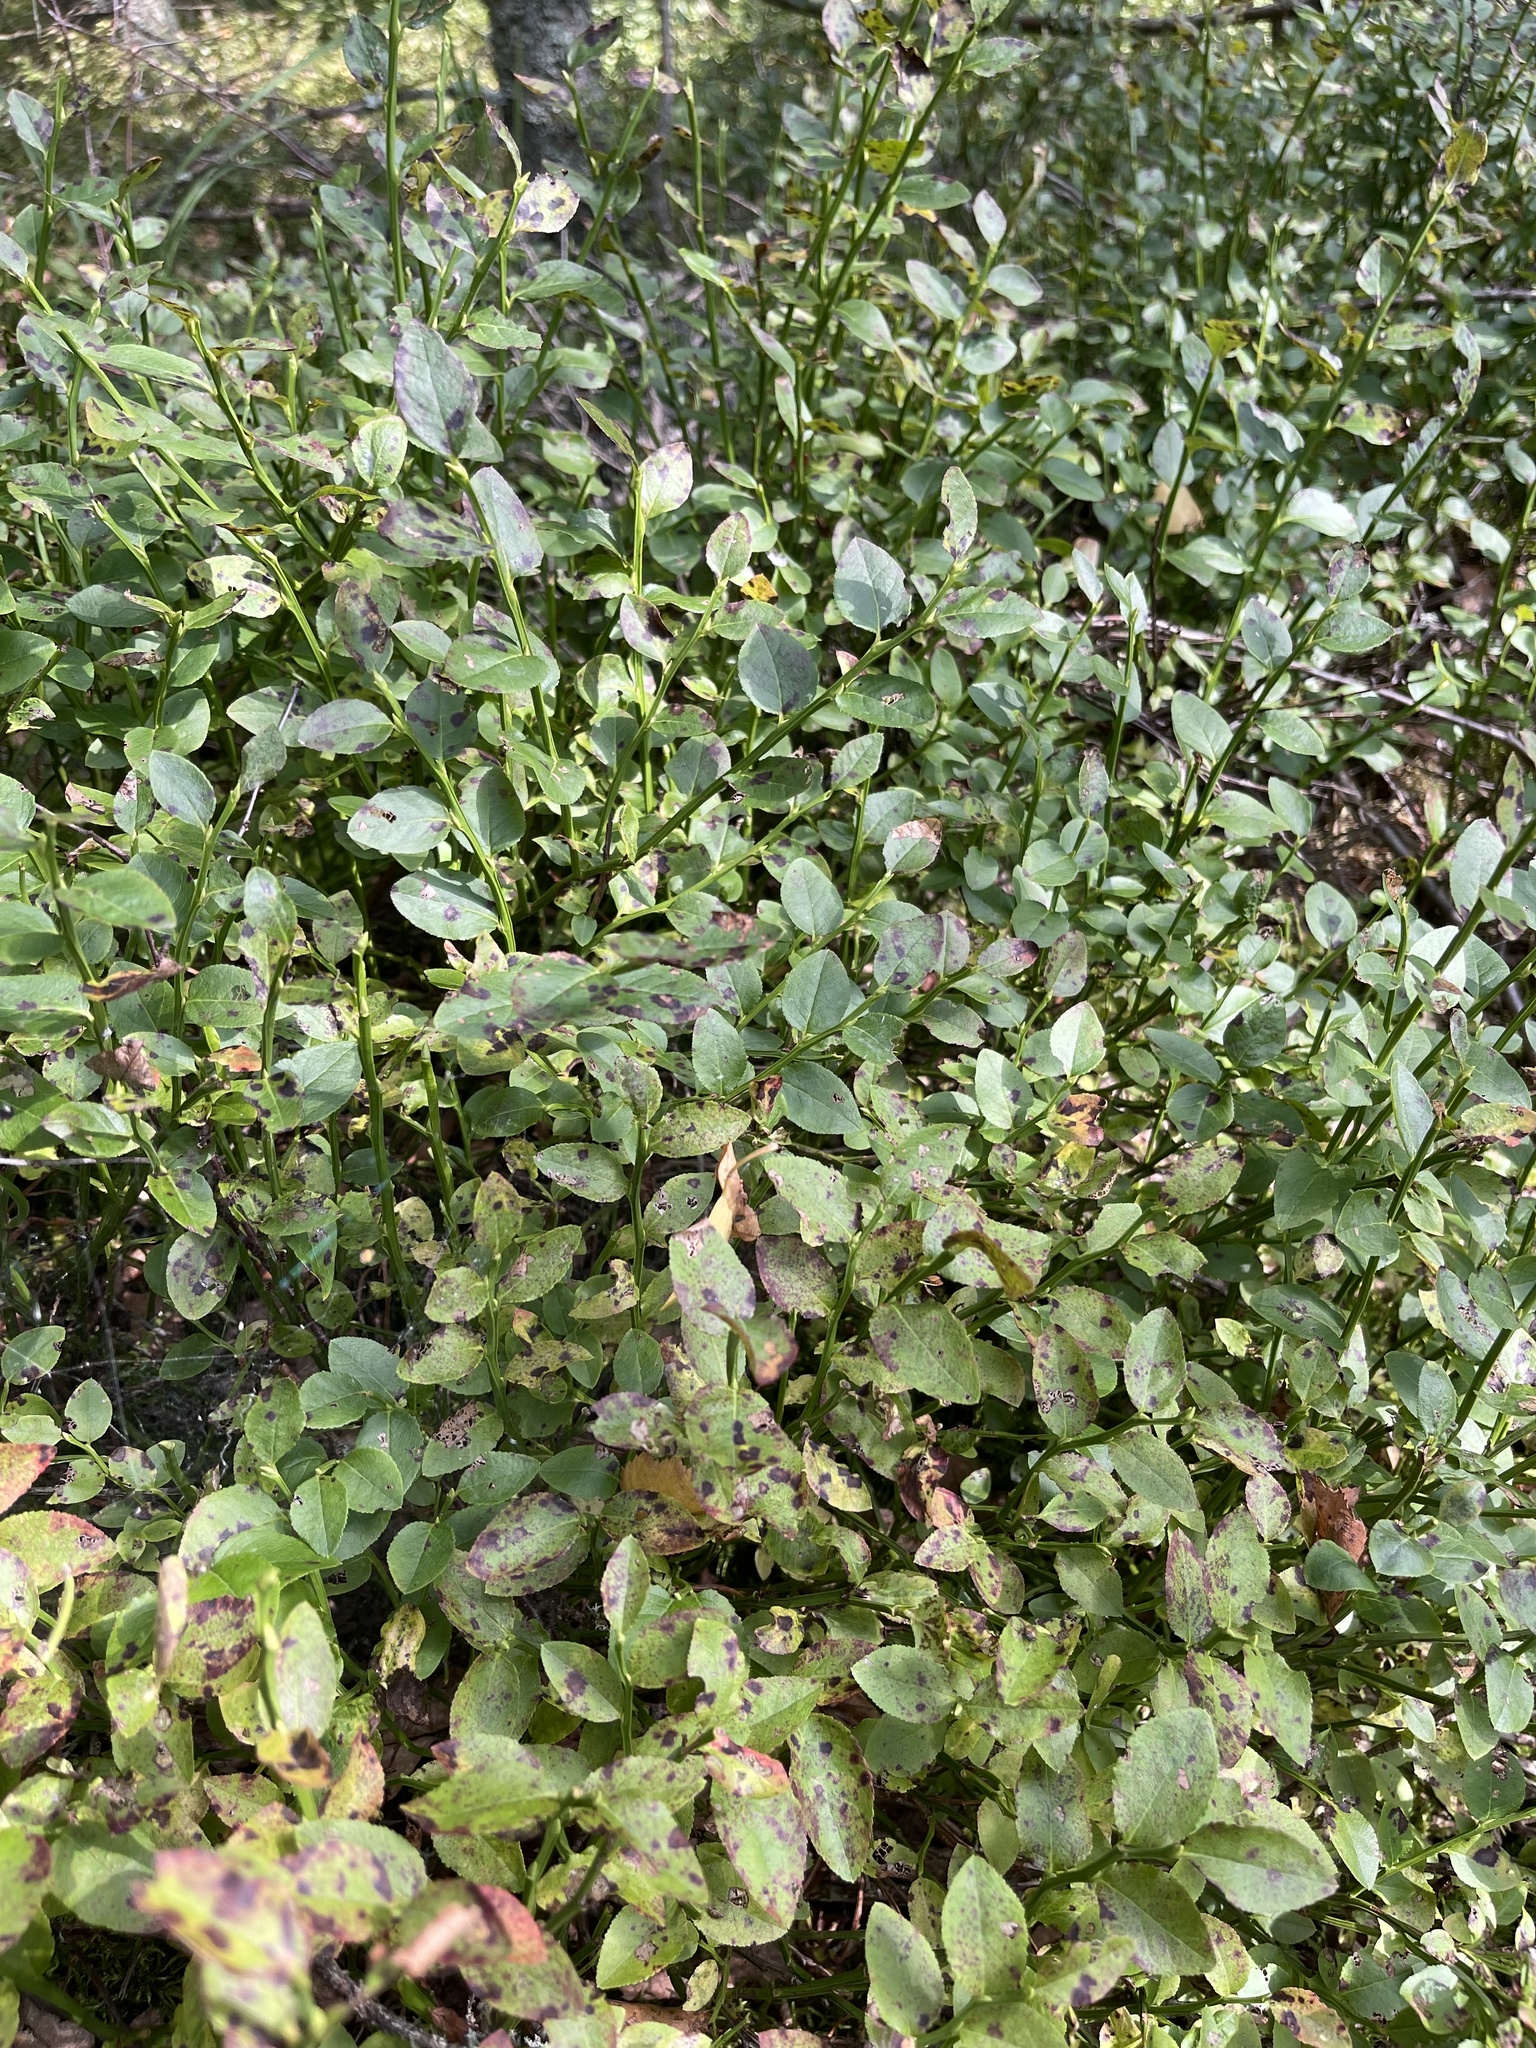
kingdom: Plantae
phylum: Tracheophyta
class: Magnoliopsida
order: Ericales
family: Ericaceae
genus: Vaccinium
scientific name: Vaccinium myrtillus
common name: Bilberry
